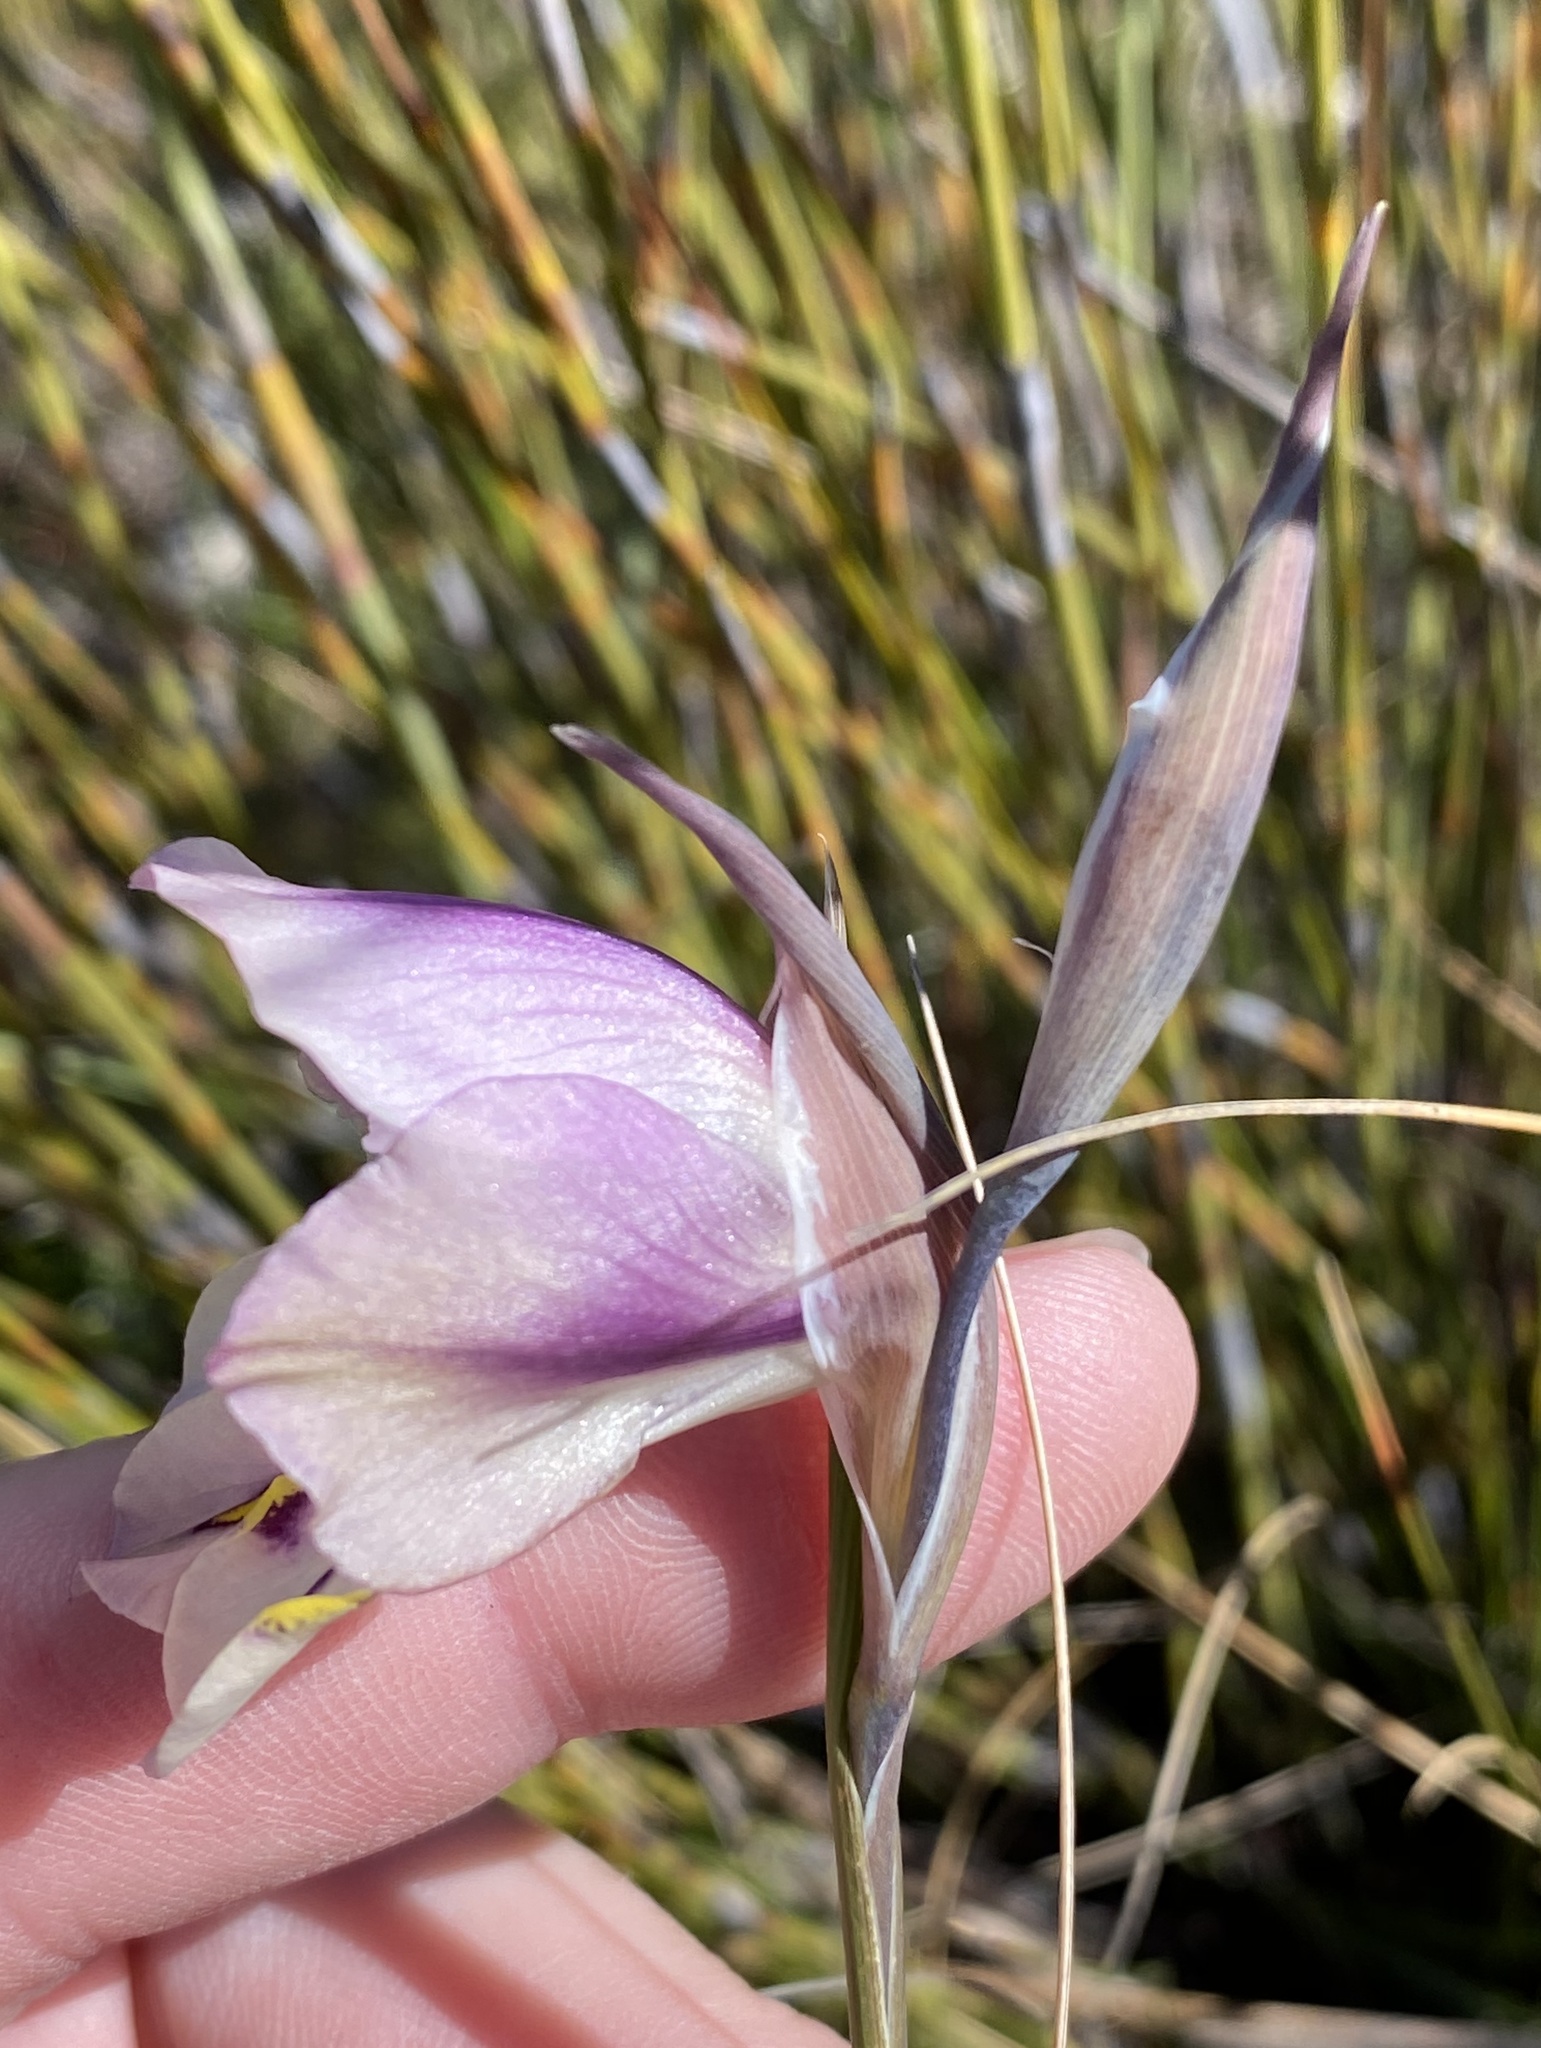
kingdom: Plantae
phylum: Tracheophyta
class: Liliopsida
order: Asparagales
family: Iridaceae
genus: Gladiolus
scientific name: Gladiolus patersoniae
